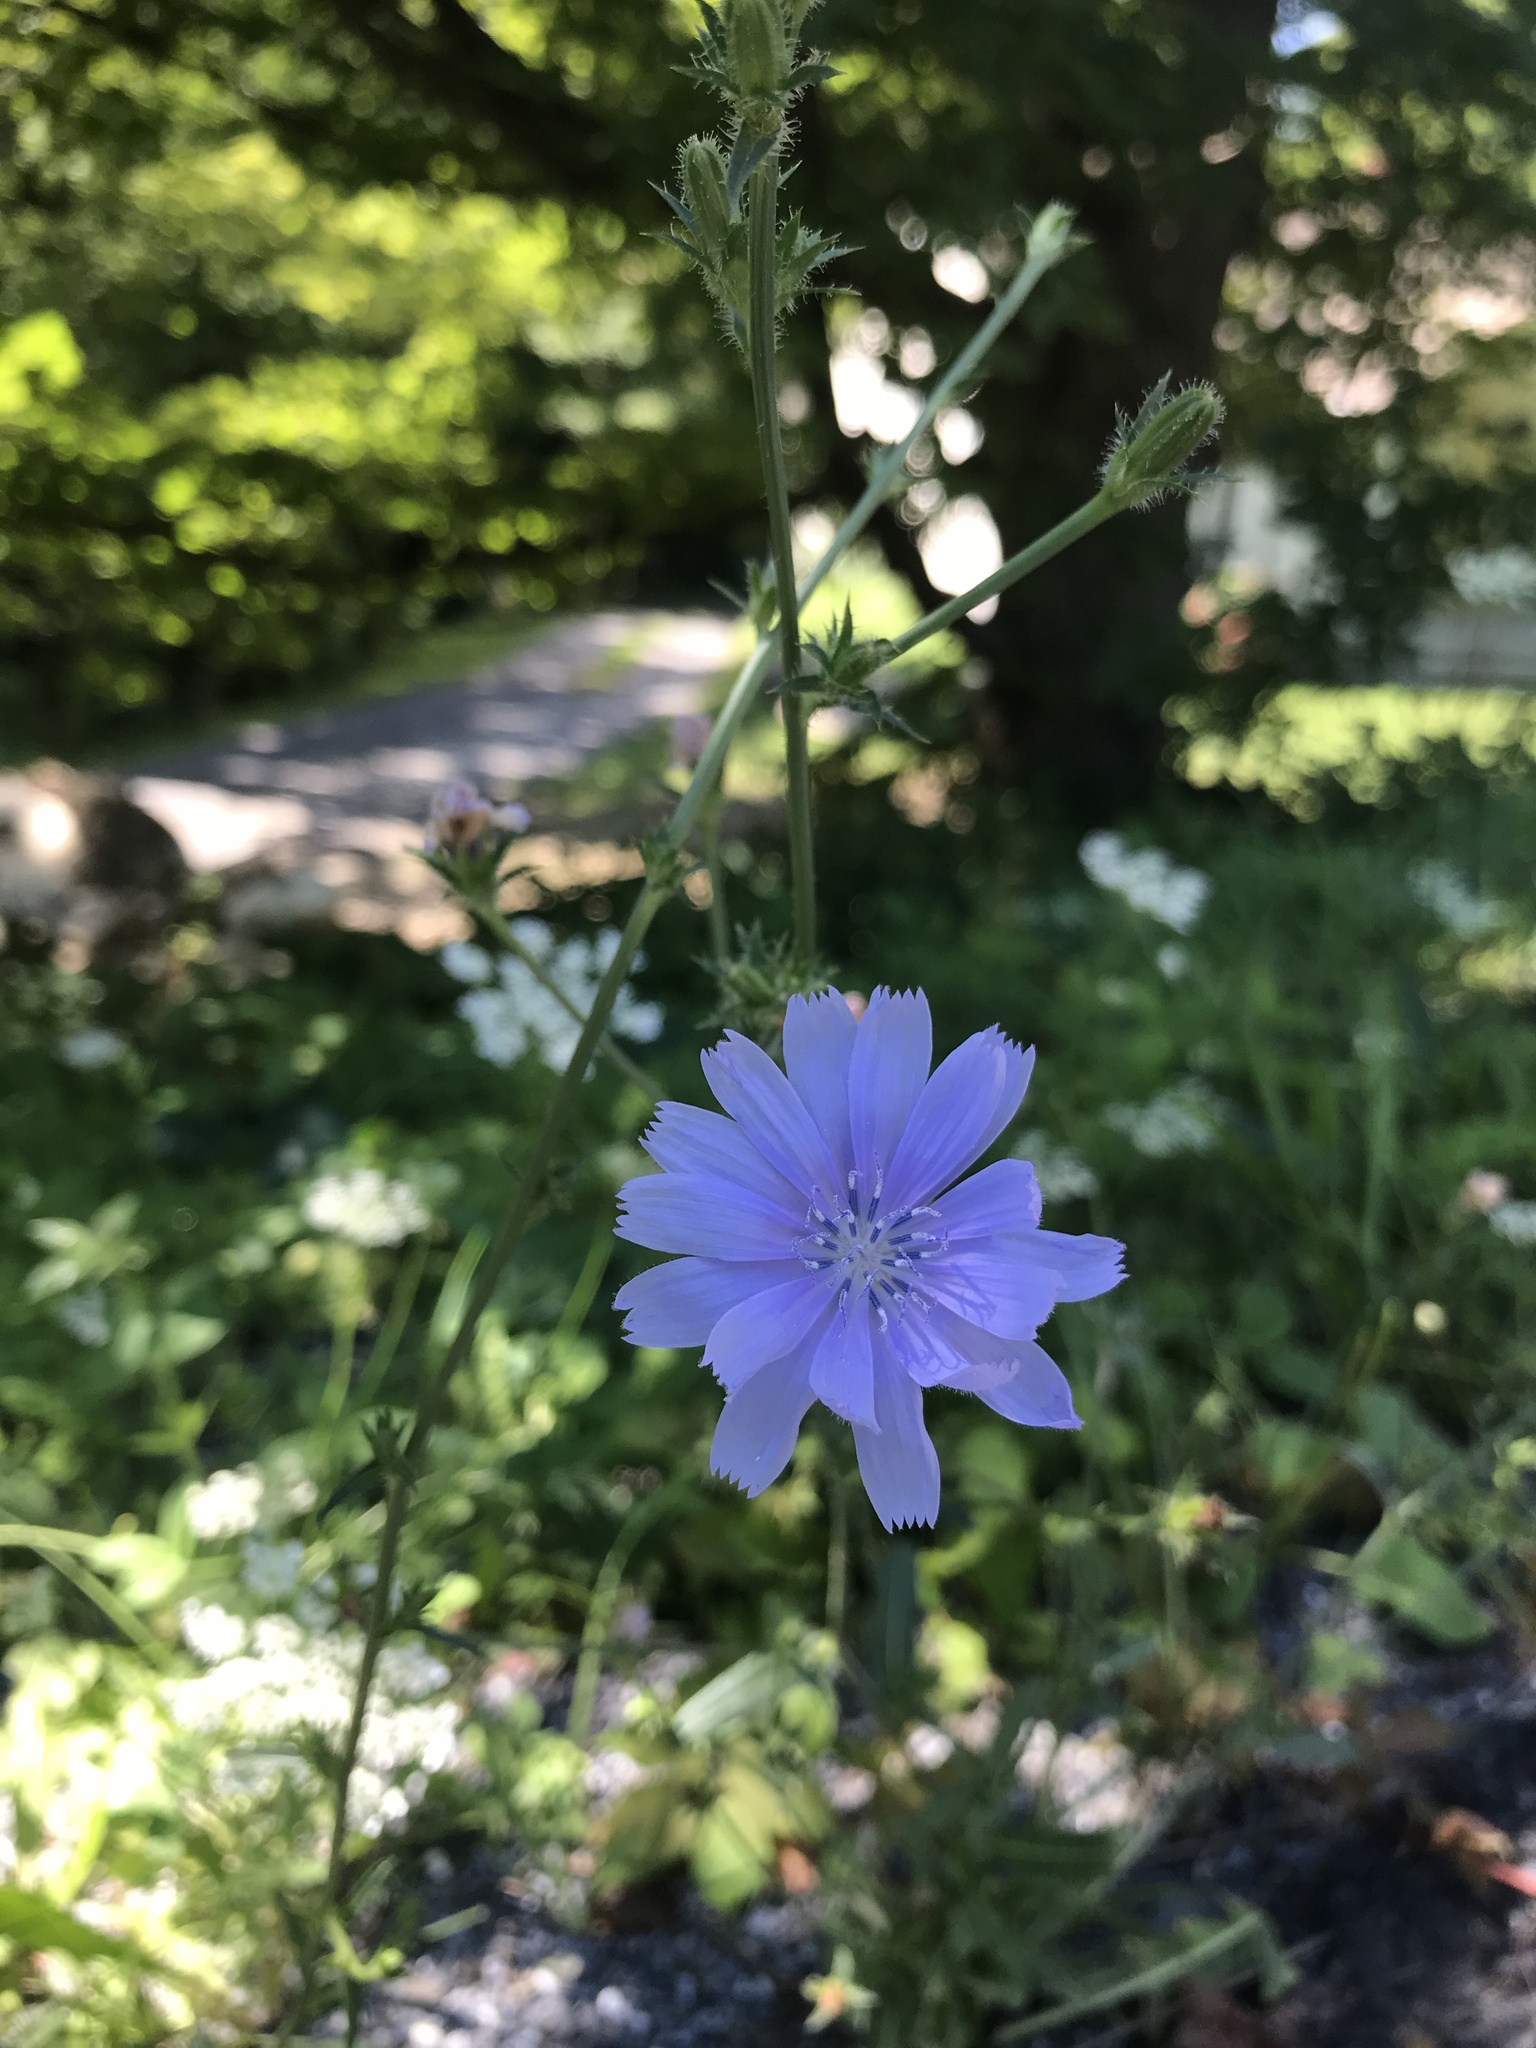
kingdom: Plantae
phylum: Tracheophyta
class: Magnoliopsida
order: Asterales
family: Asteraceae
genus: Cichorium
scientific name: Cichorium intybus
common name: Chicory
